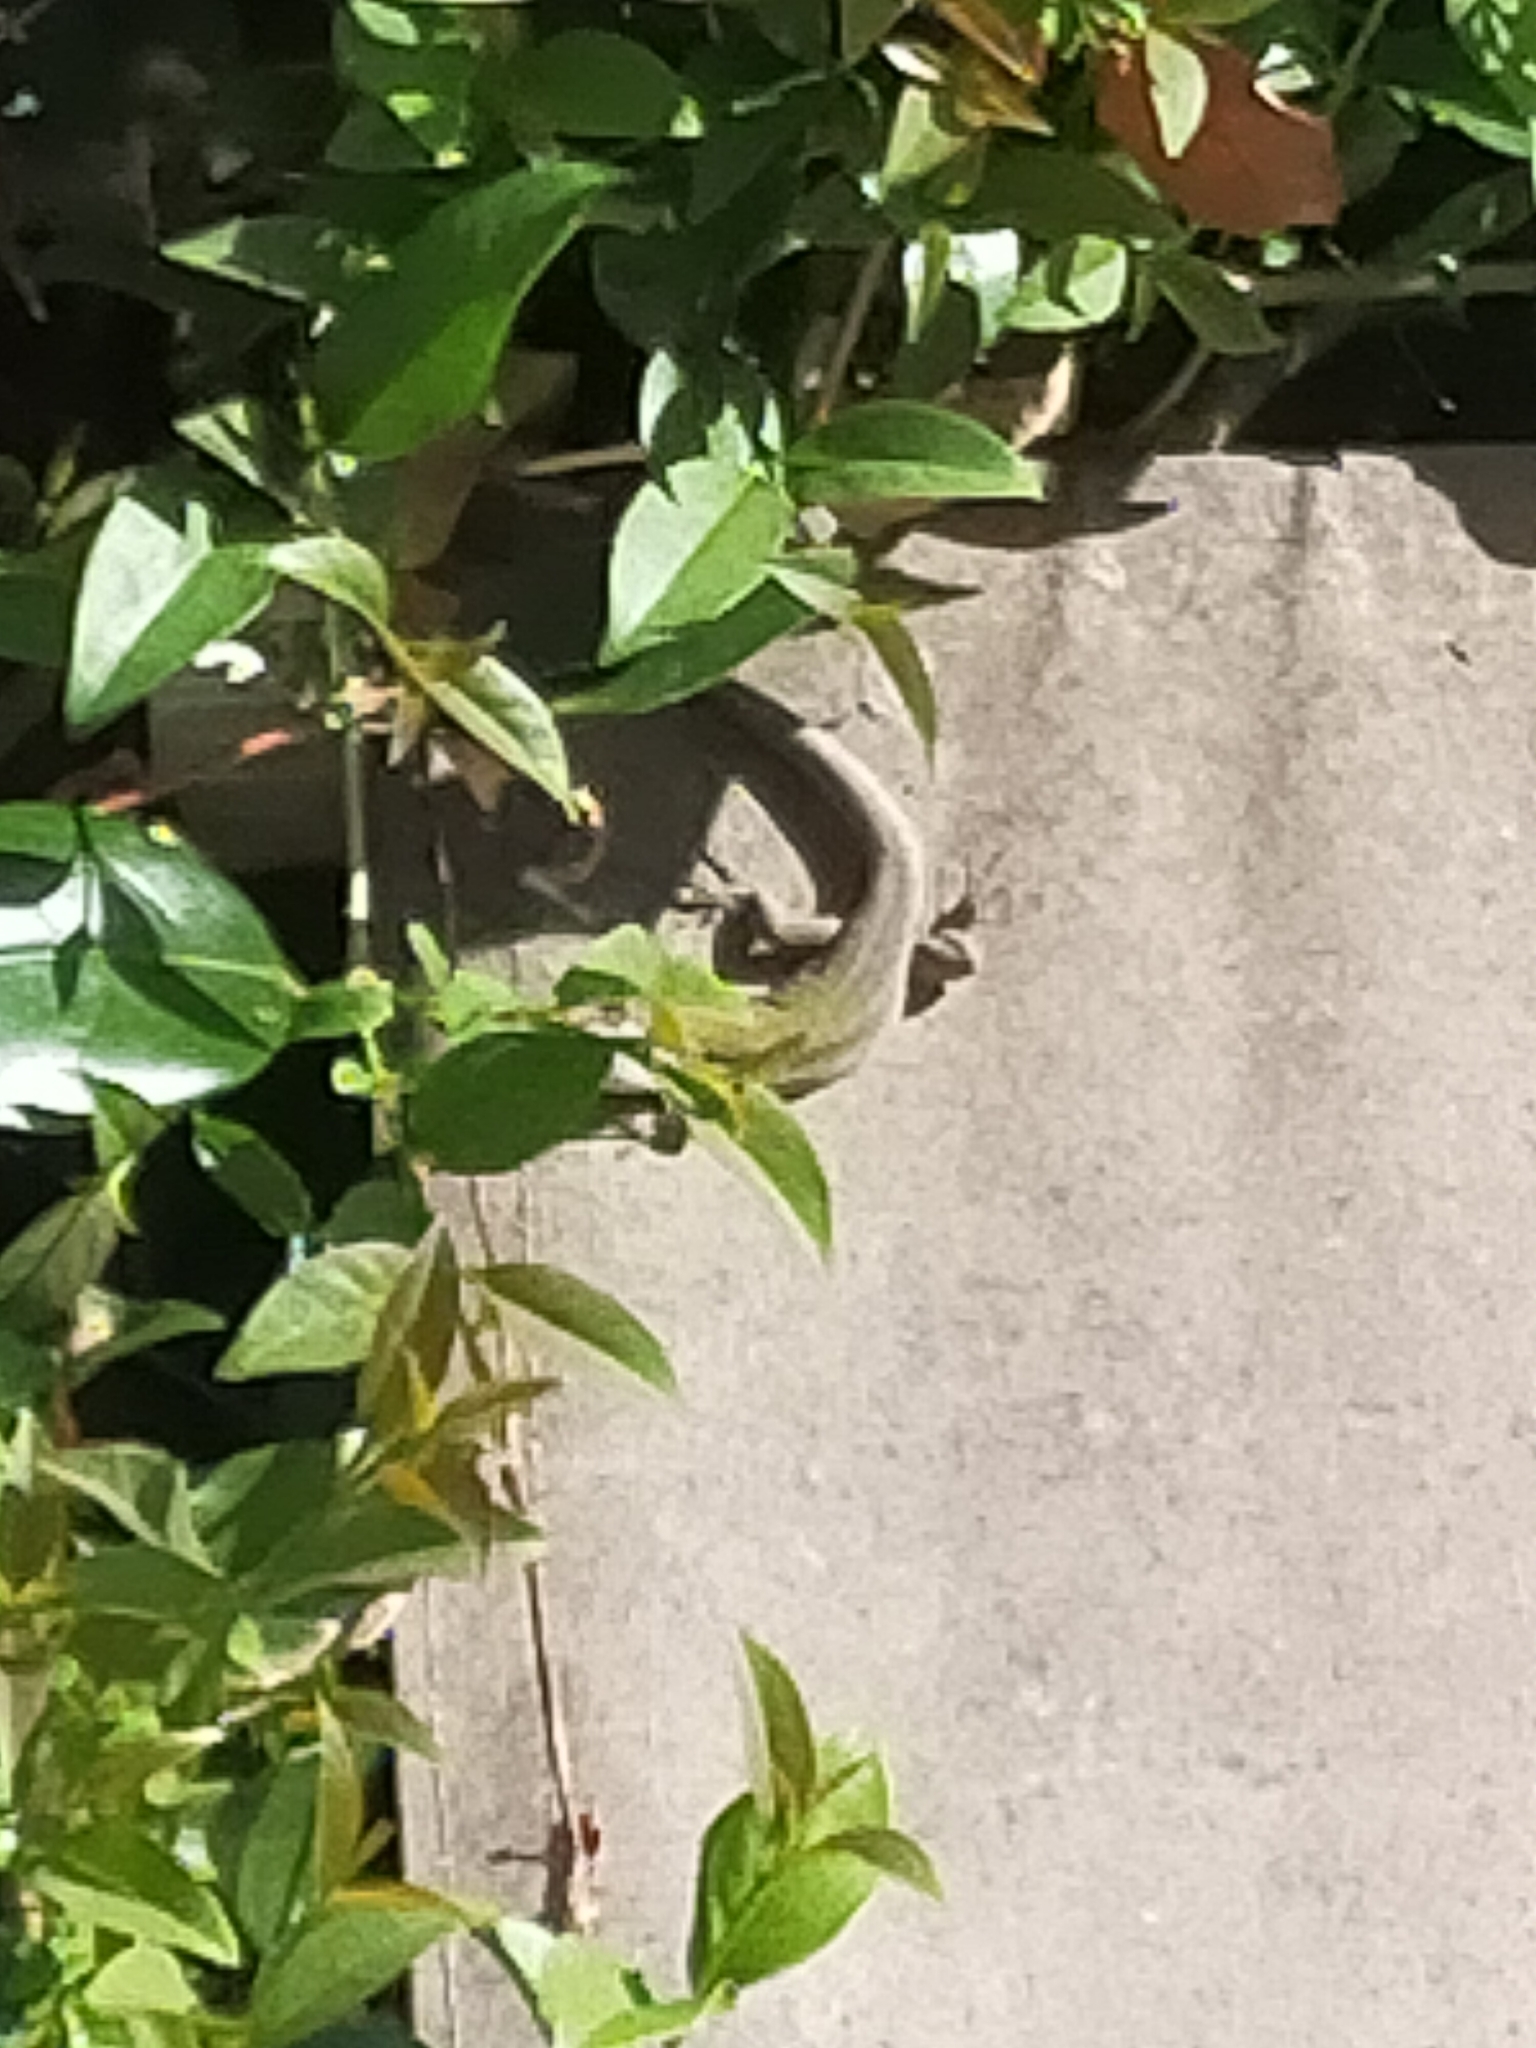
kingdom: Animalia
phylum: Chordata
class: Squamata
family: Lacertidae
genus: Podarcis
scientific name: Podarcis siculus
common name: Italian wall lizard
